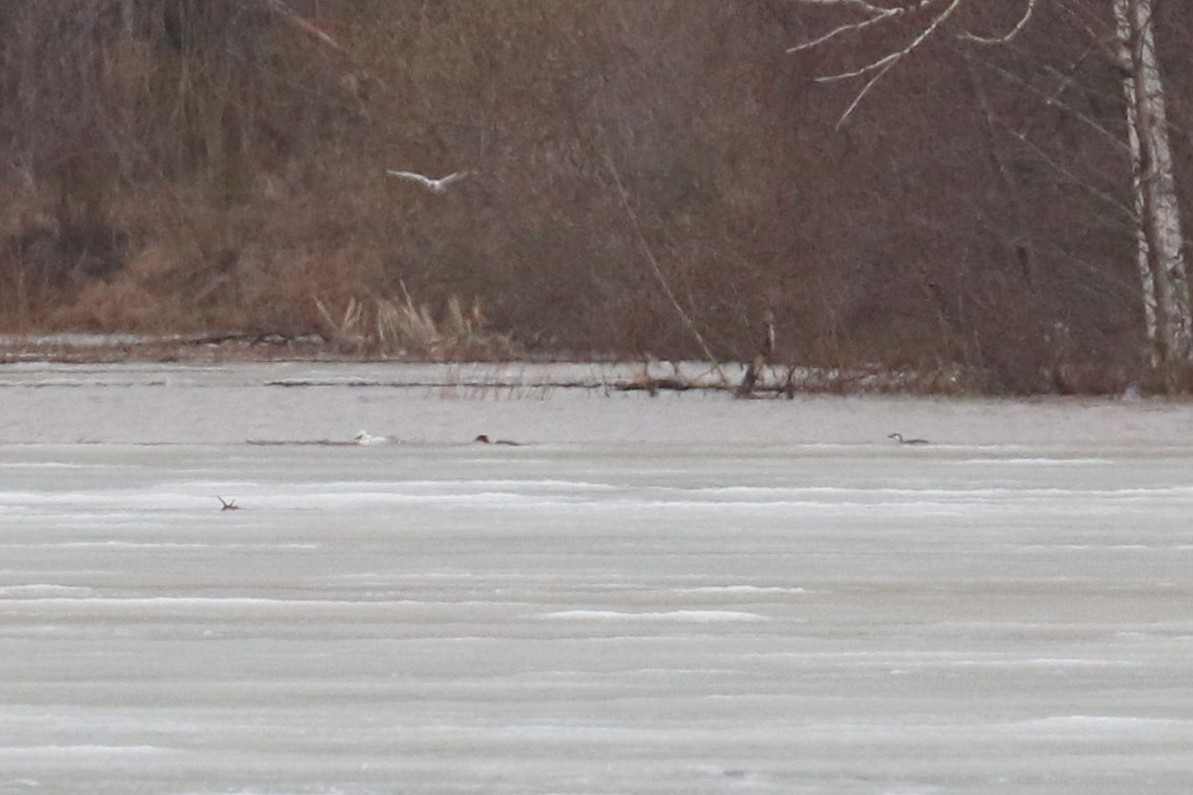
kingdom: Animalia
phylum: Chordata
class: Aves
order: Anseriformes
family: Anatidae
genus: Mergellus
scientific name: Mergellus albellus
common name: Smew
